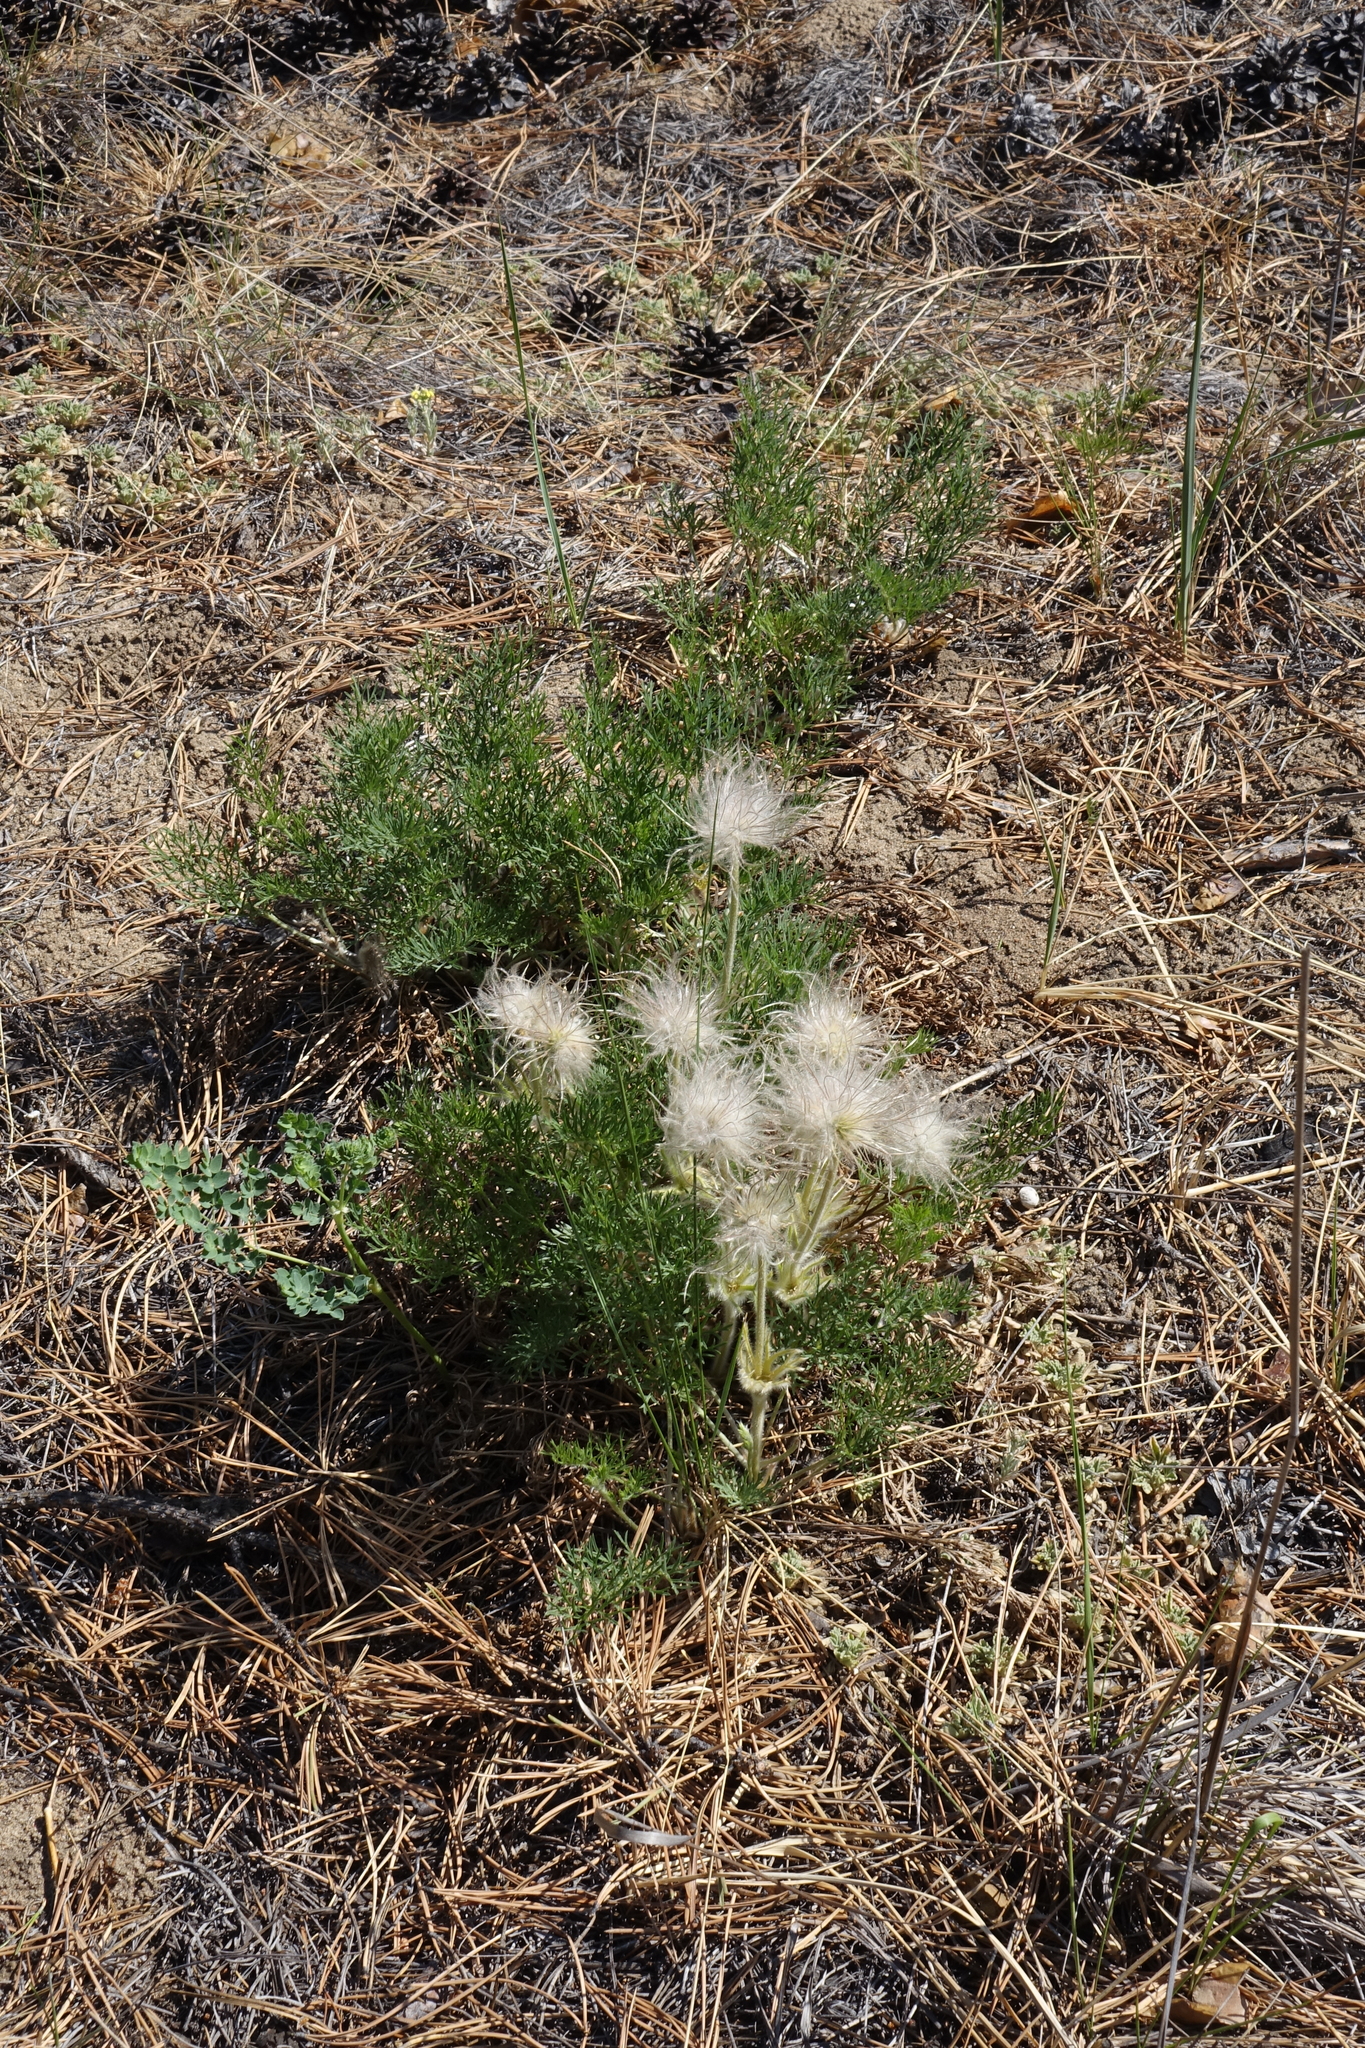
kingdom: Plantae
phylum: Tracheophyta
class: Magnoliopsida
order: Ranunculales
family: Ranunculaceae
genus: Pulsatilla
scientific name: Pulsatilla turczaninovii
